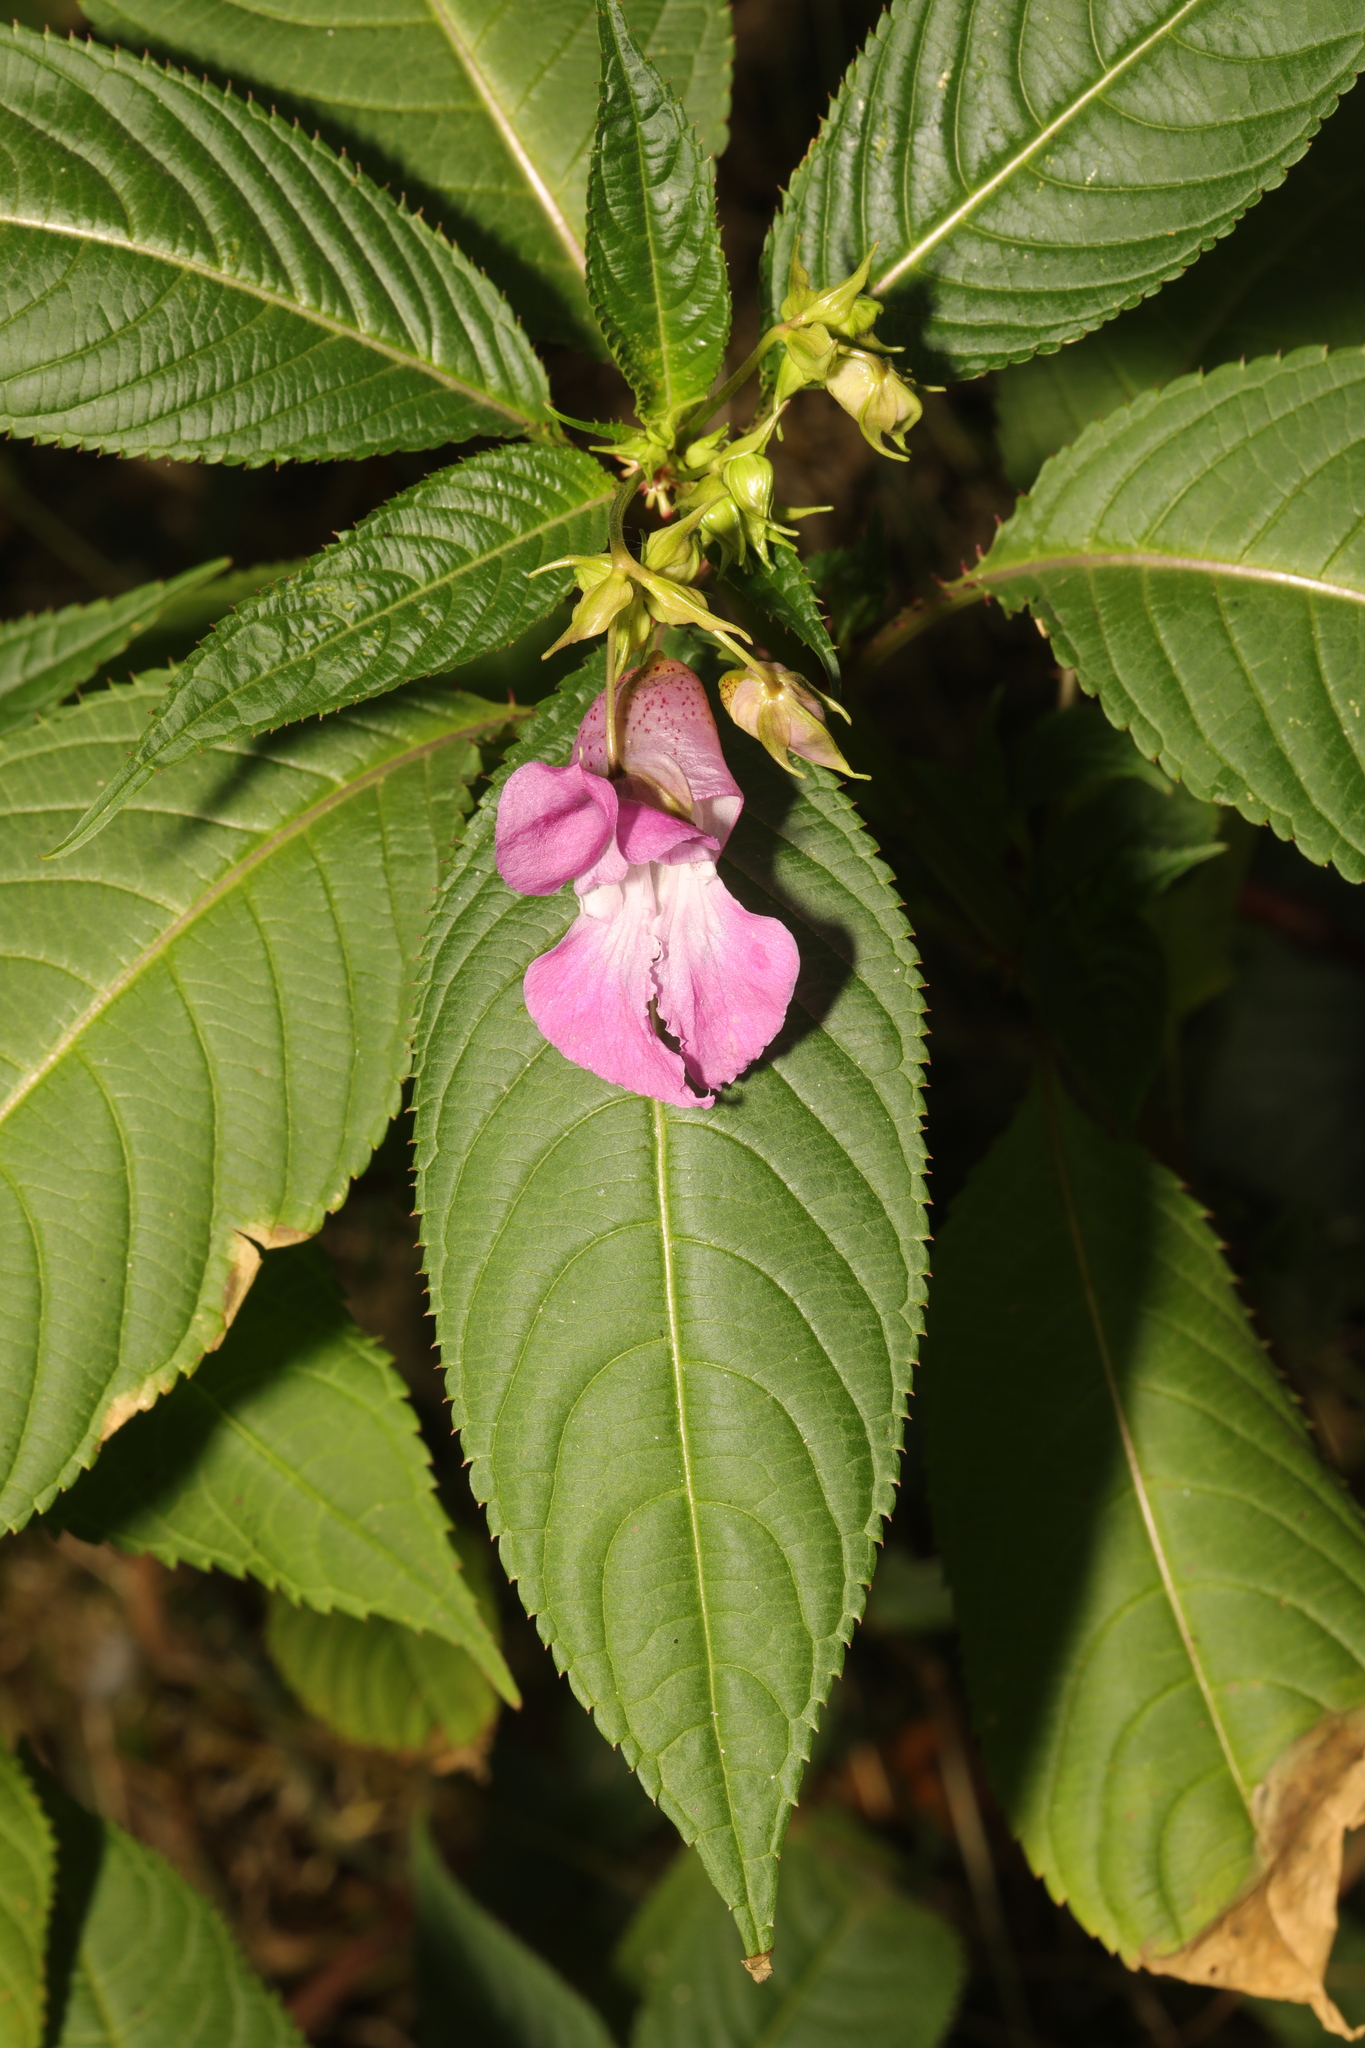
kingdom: Plantae
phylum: Tracheophyta
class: Magnoliopsida
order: Ericales
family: Balsaminaceae
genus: Impatiens
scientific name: Impatiens glandulifera
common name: Himalayan balsam
